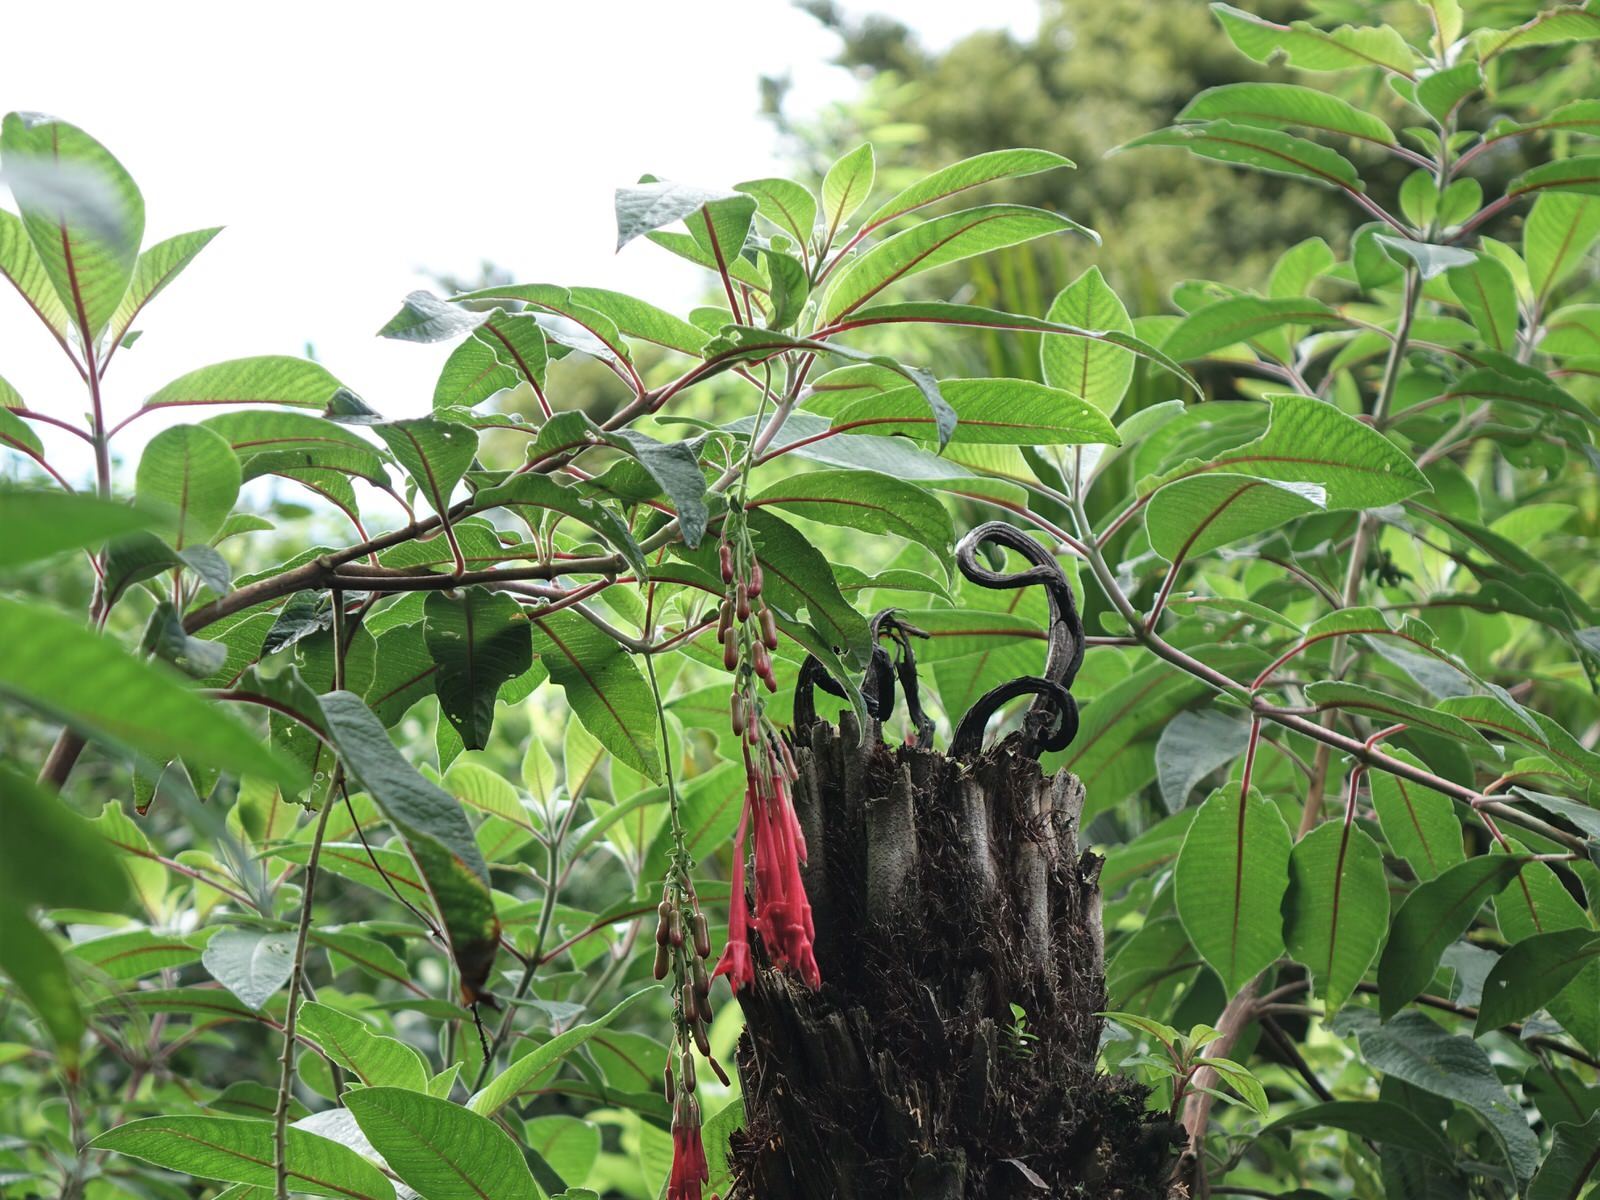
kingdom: Plantae
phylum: Tracheophyta
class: Magnoliopsida
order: Myrtales
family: Onagraceae
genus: Fuchsia
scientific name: Fuchsia boliviana
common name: Bolivian fuchsia
